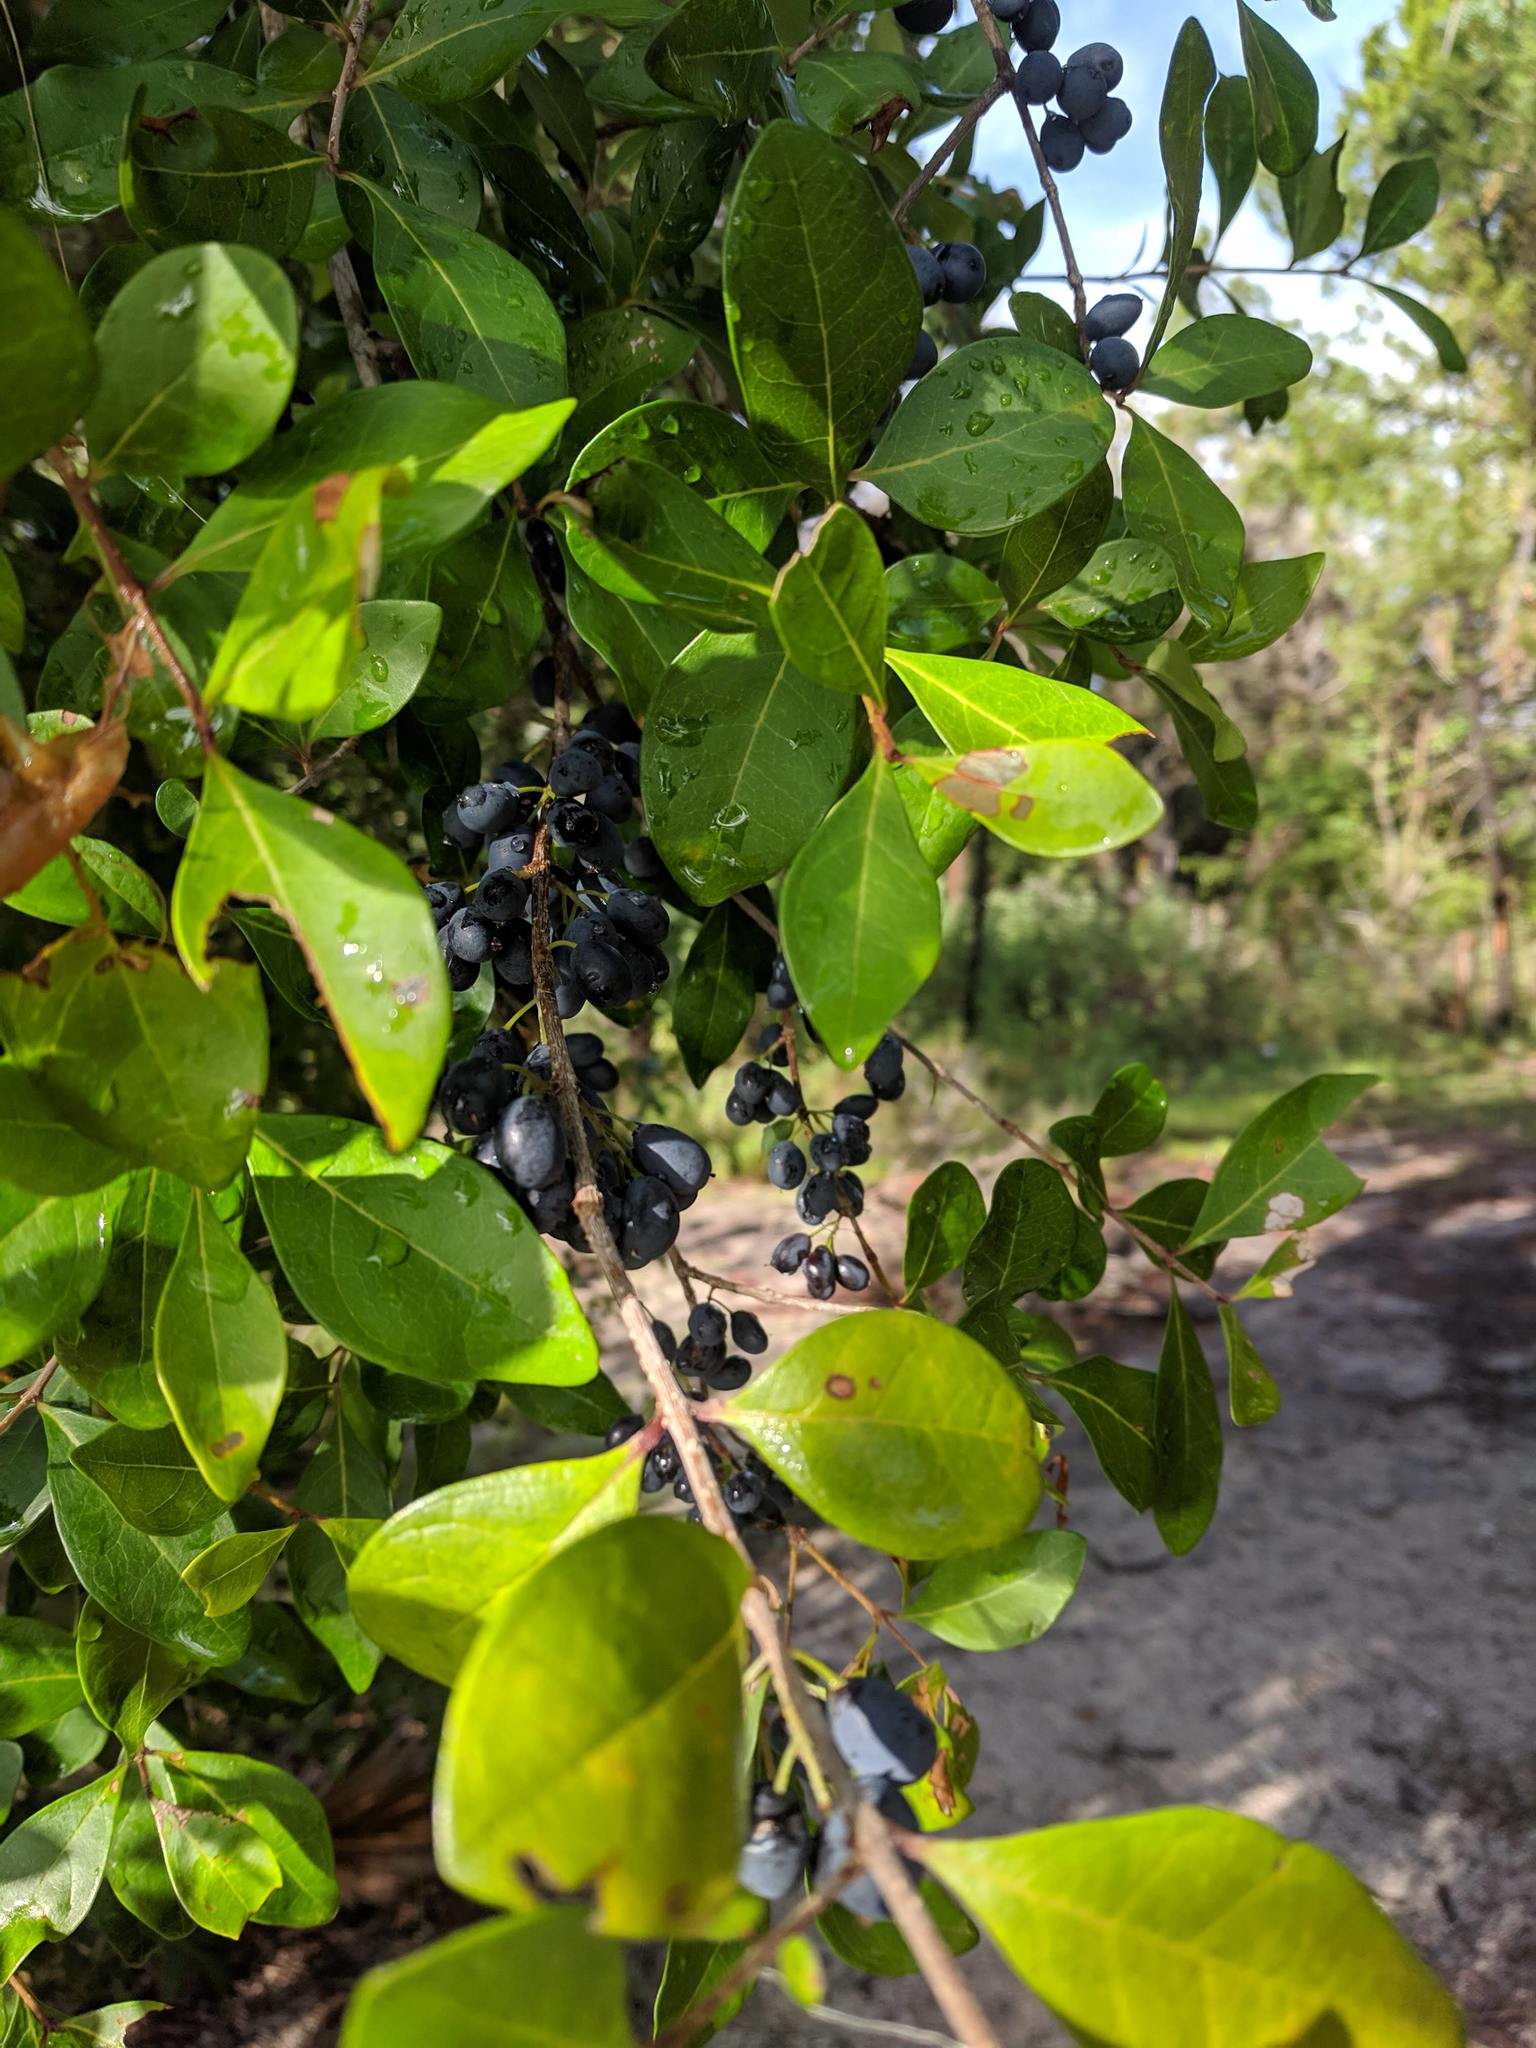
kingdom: Plantae
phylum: Tracheophyta
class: Magnoliopsida
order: Lamiales
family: Oleaceae
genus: Forestiera
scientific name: Forestiera segregata
